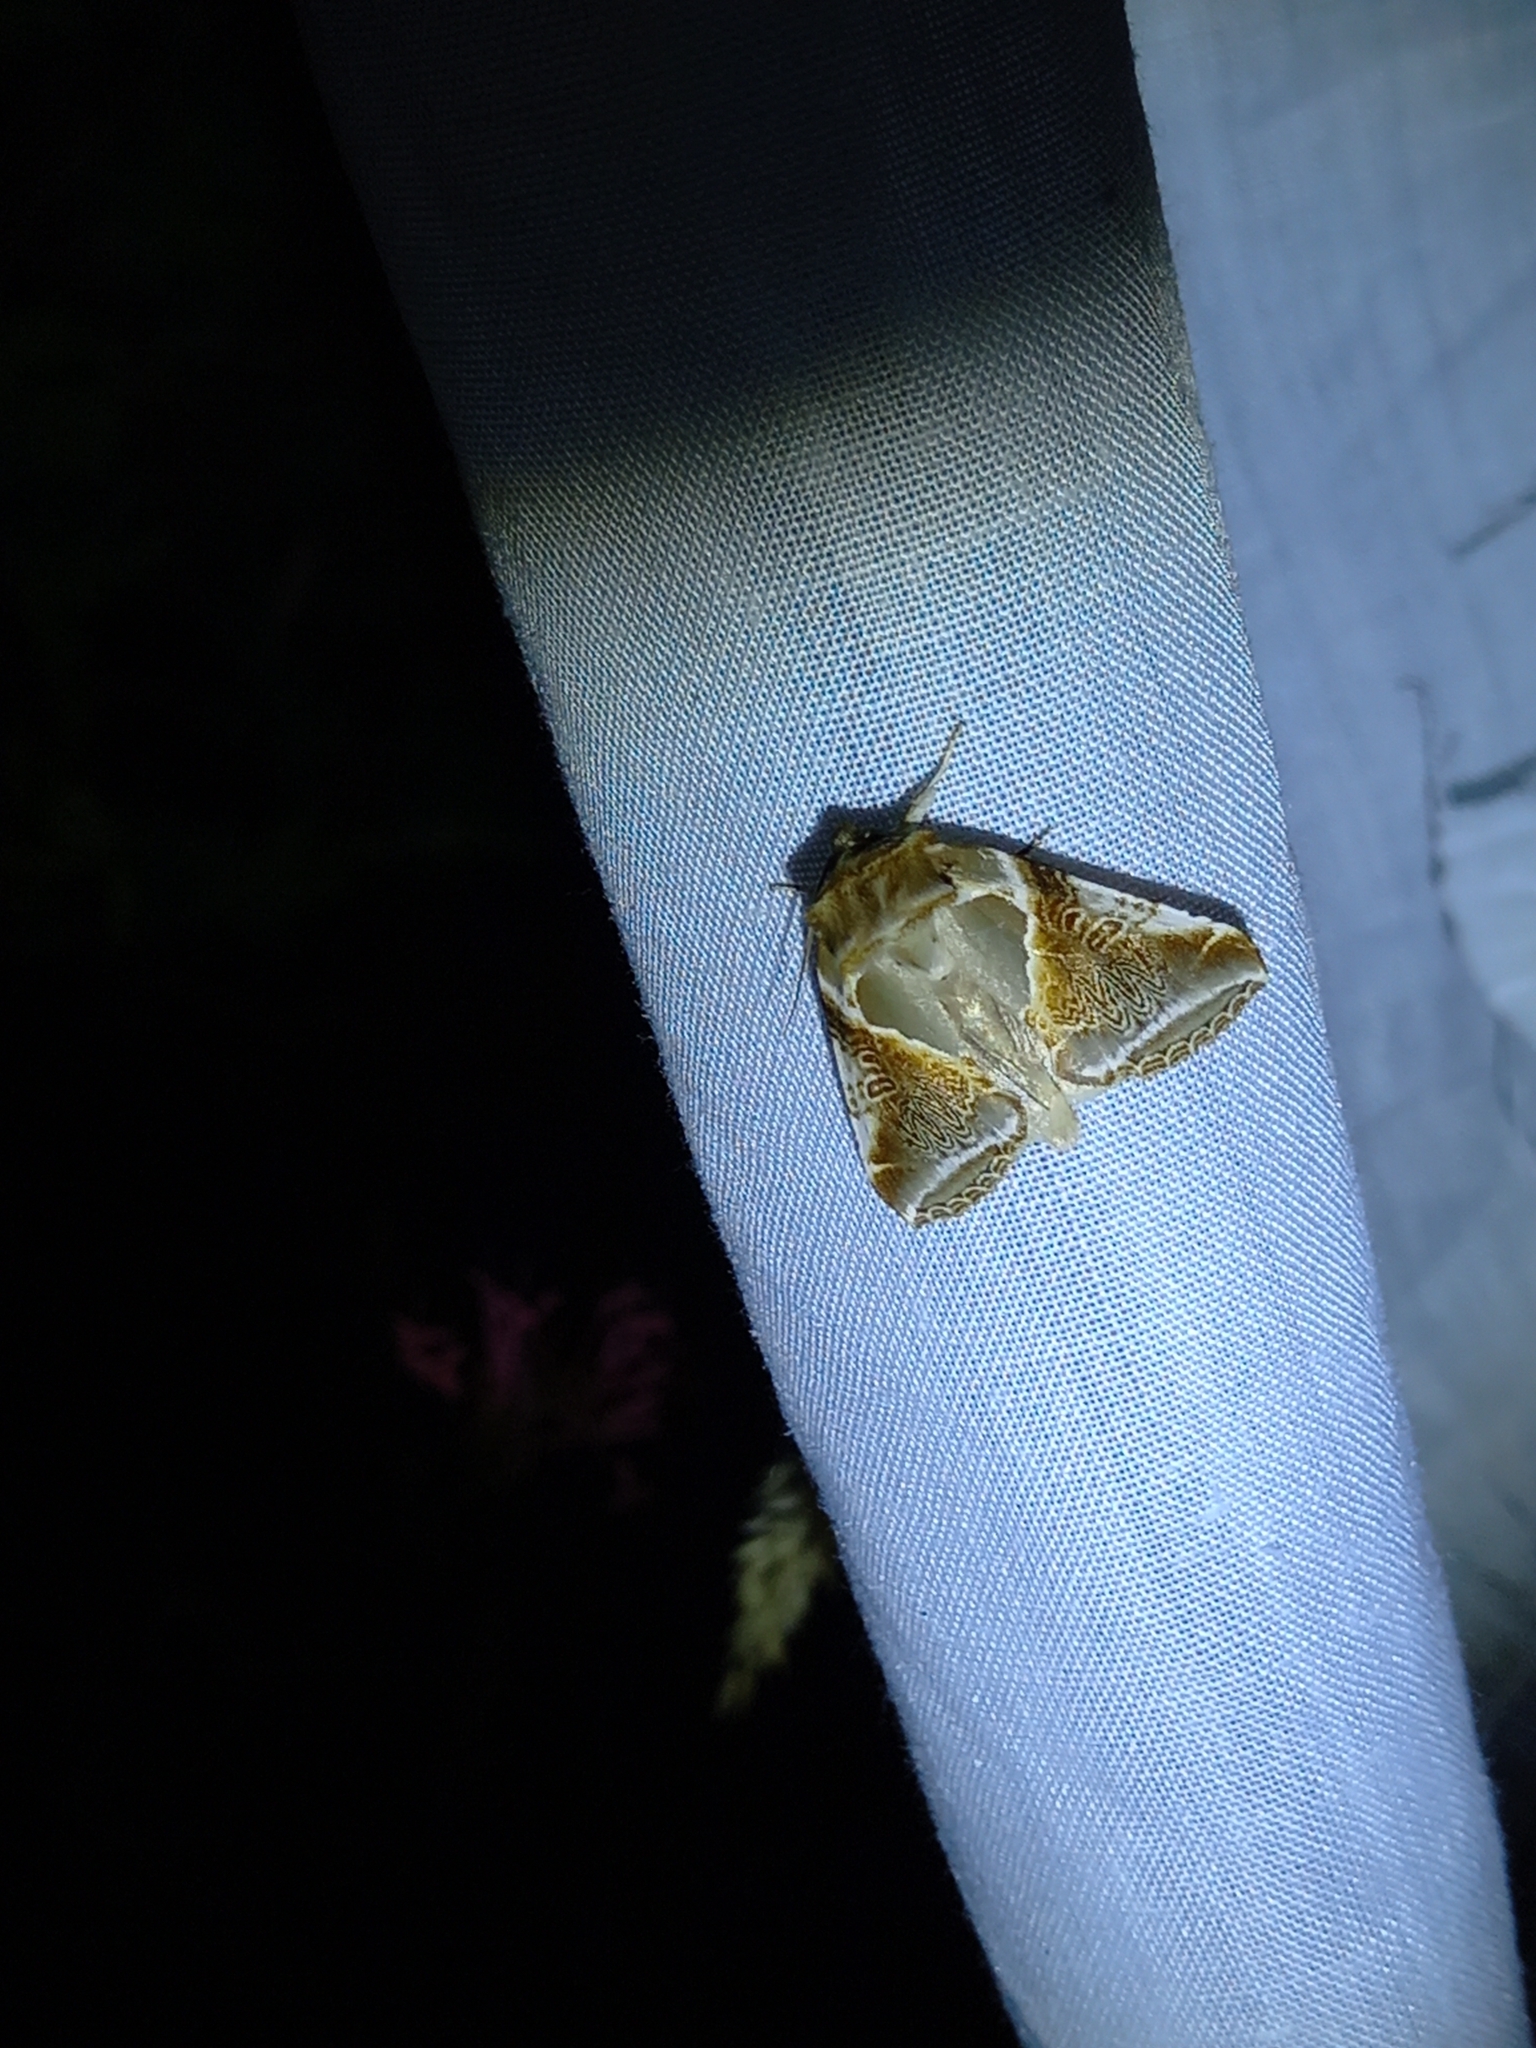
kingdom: Animalia
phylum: Arthropoda
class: Insecta
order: Lepidoptera
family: Drepanidae
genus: Habrosyne
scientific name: Habrosyne pyritoides
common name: Buff arches
